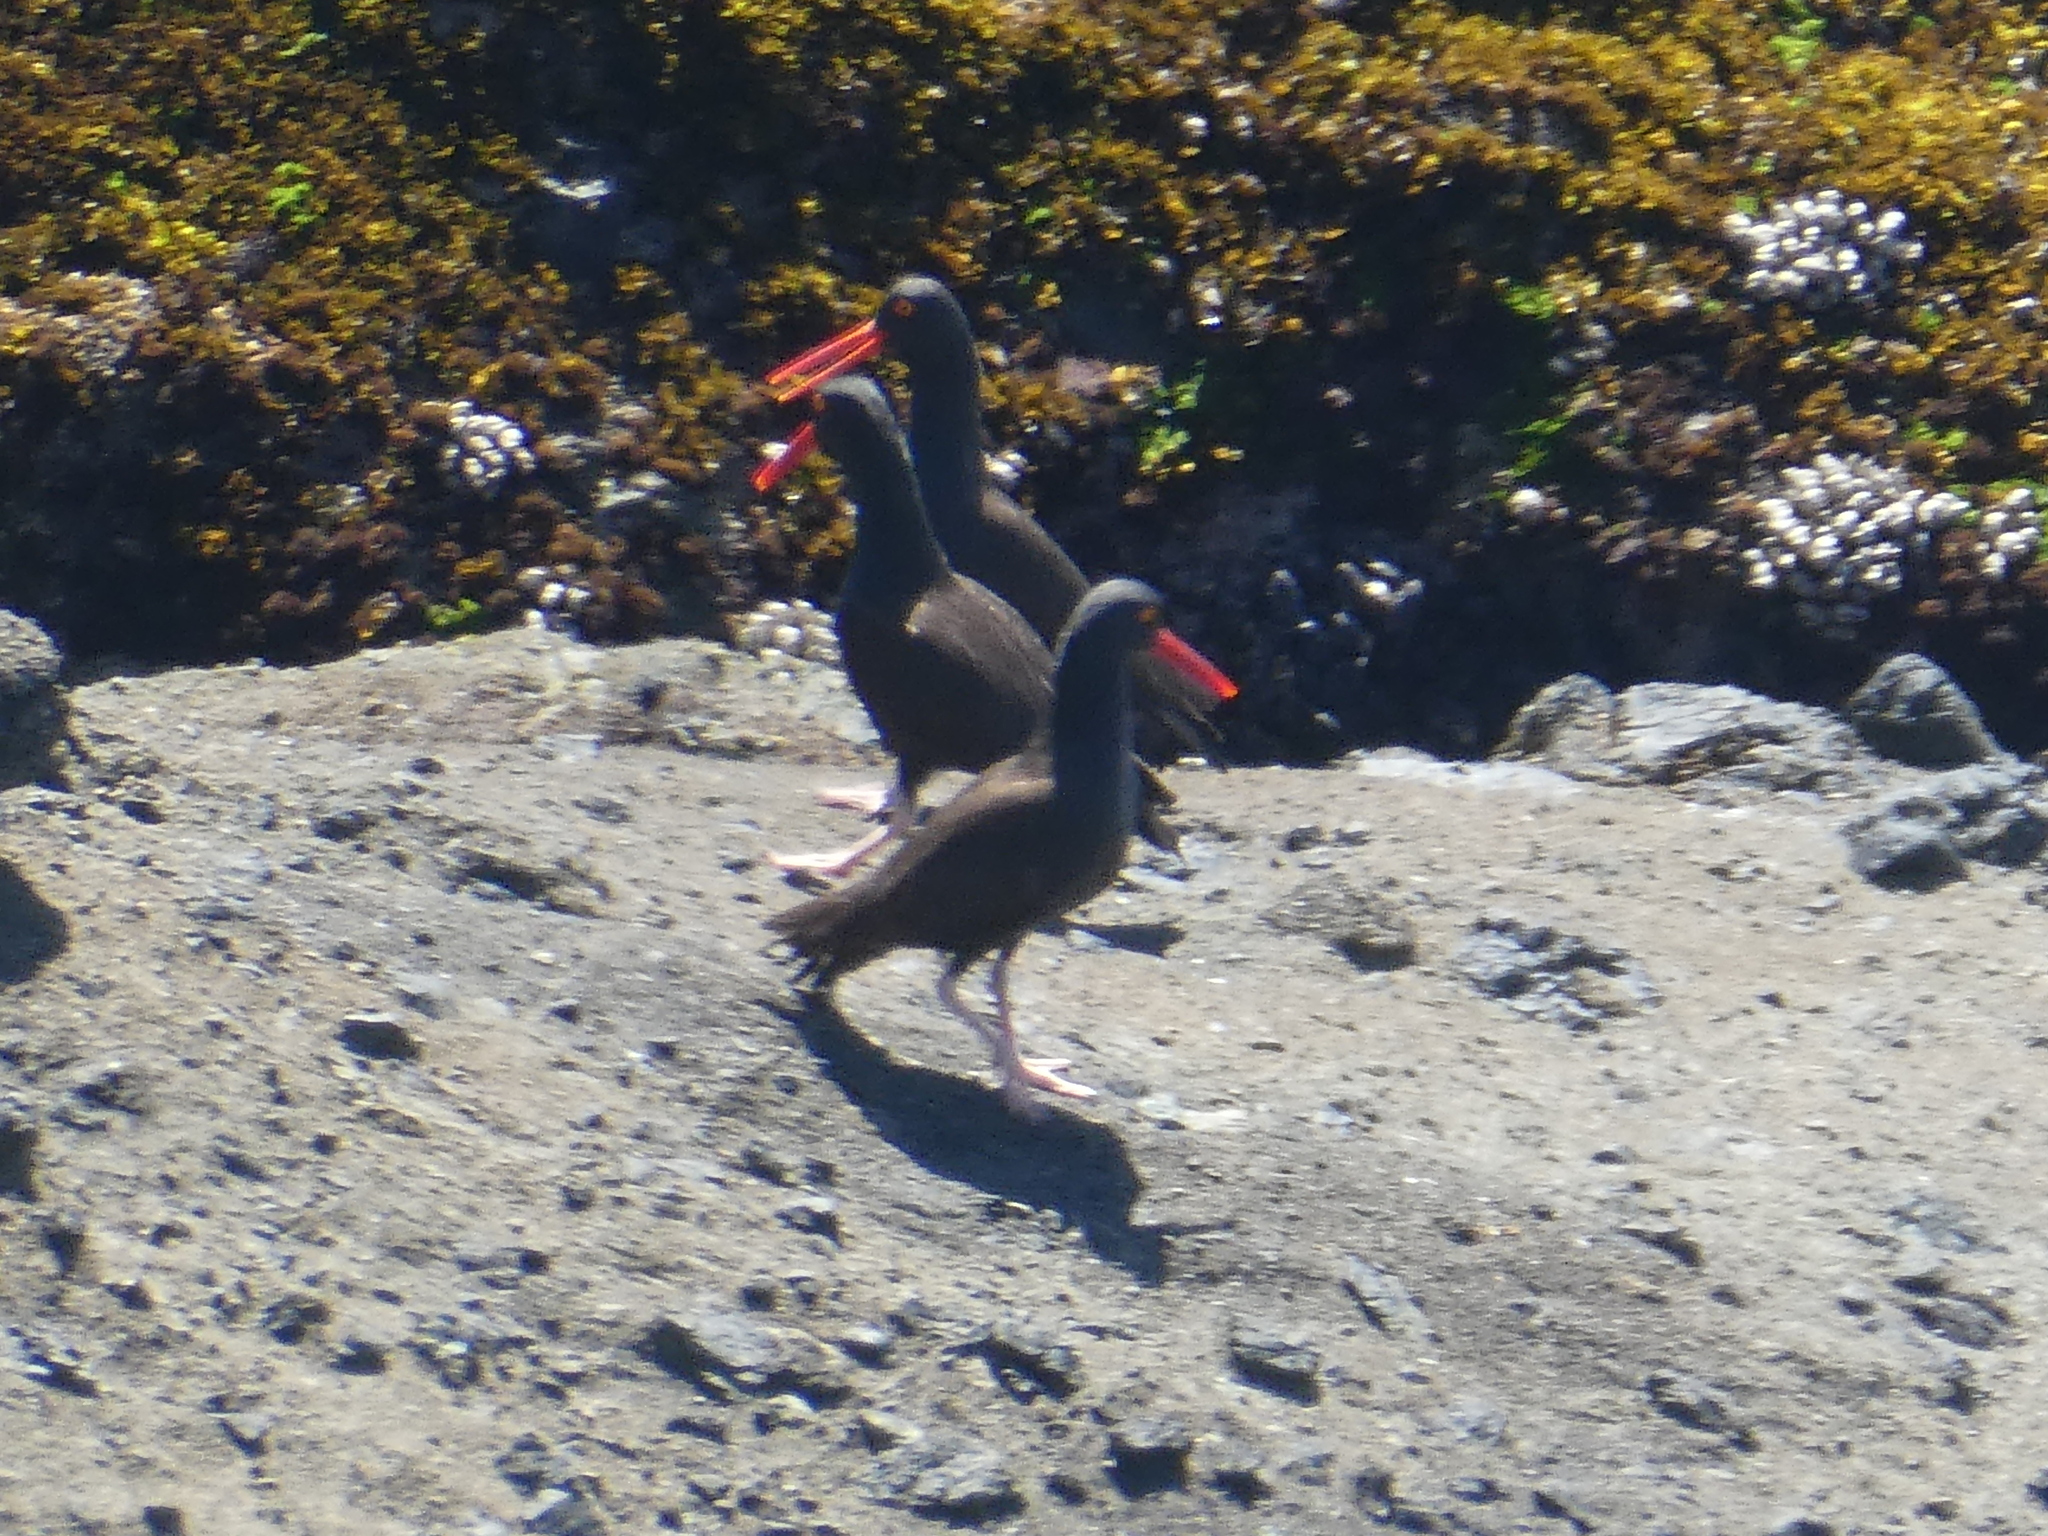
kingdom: Animalia
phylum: Chordata
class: Aves
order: Charadriiformes
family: Haematopodidae
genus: Haematopus
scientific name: Haematopus bachmani
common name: Black oystercatcher
